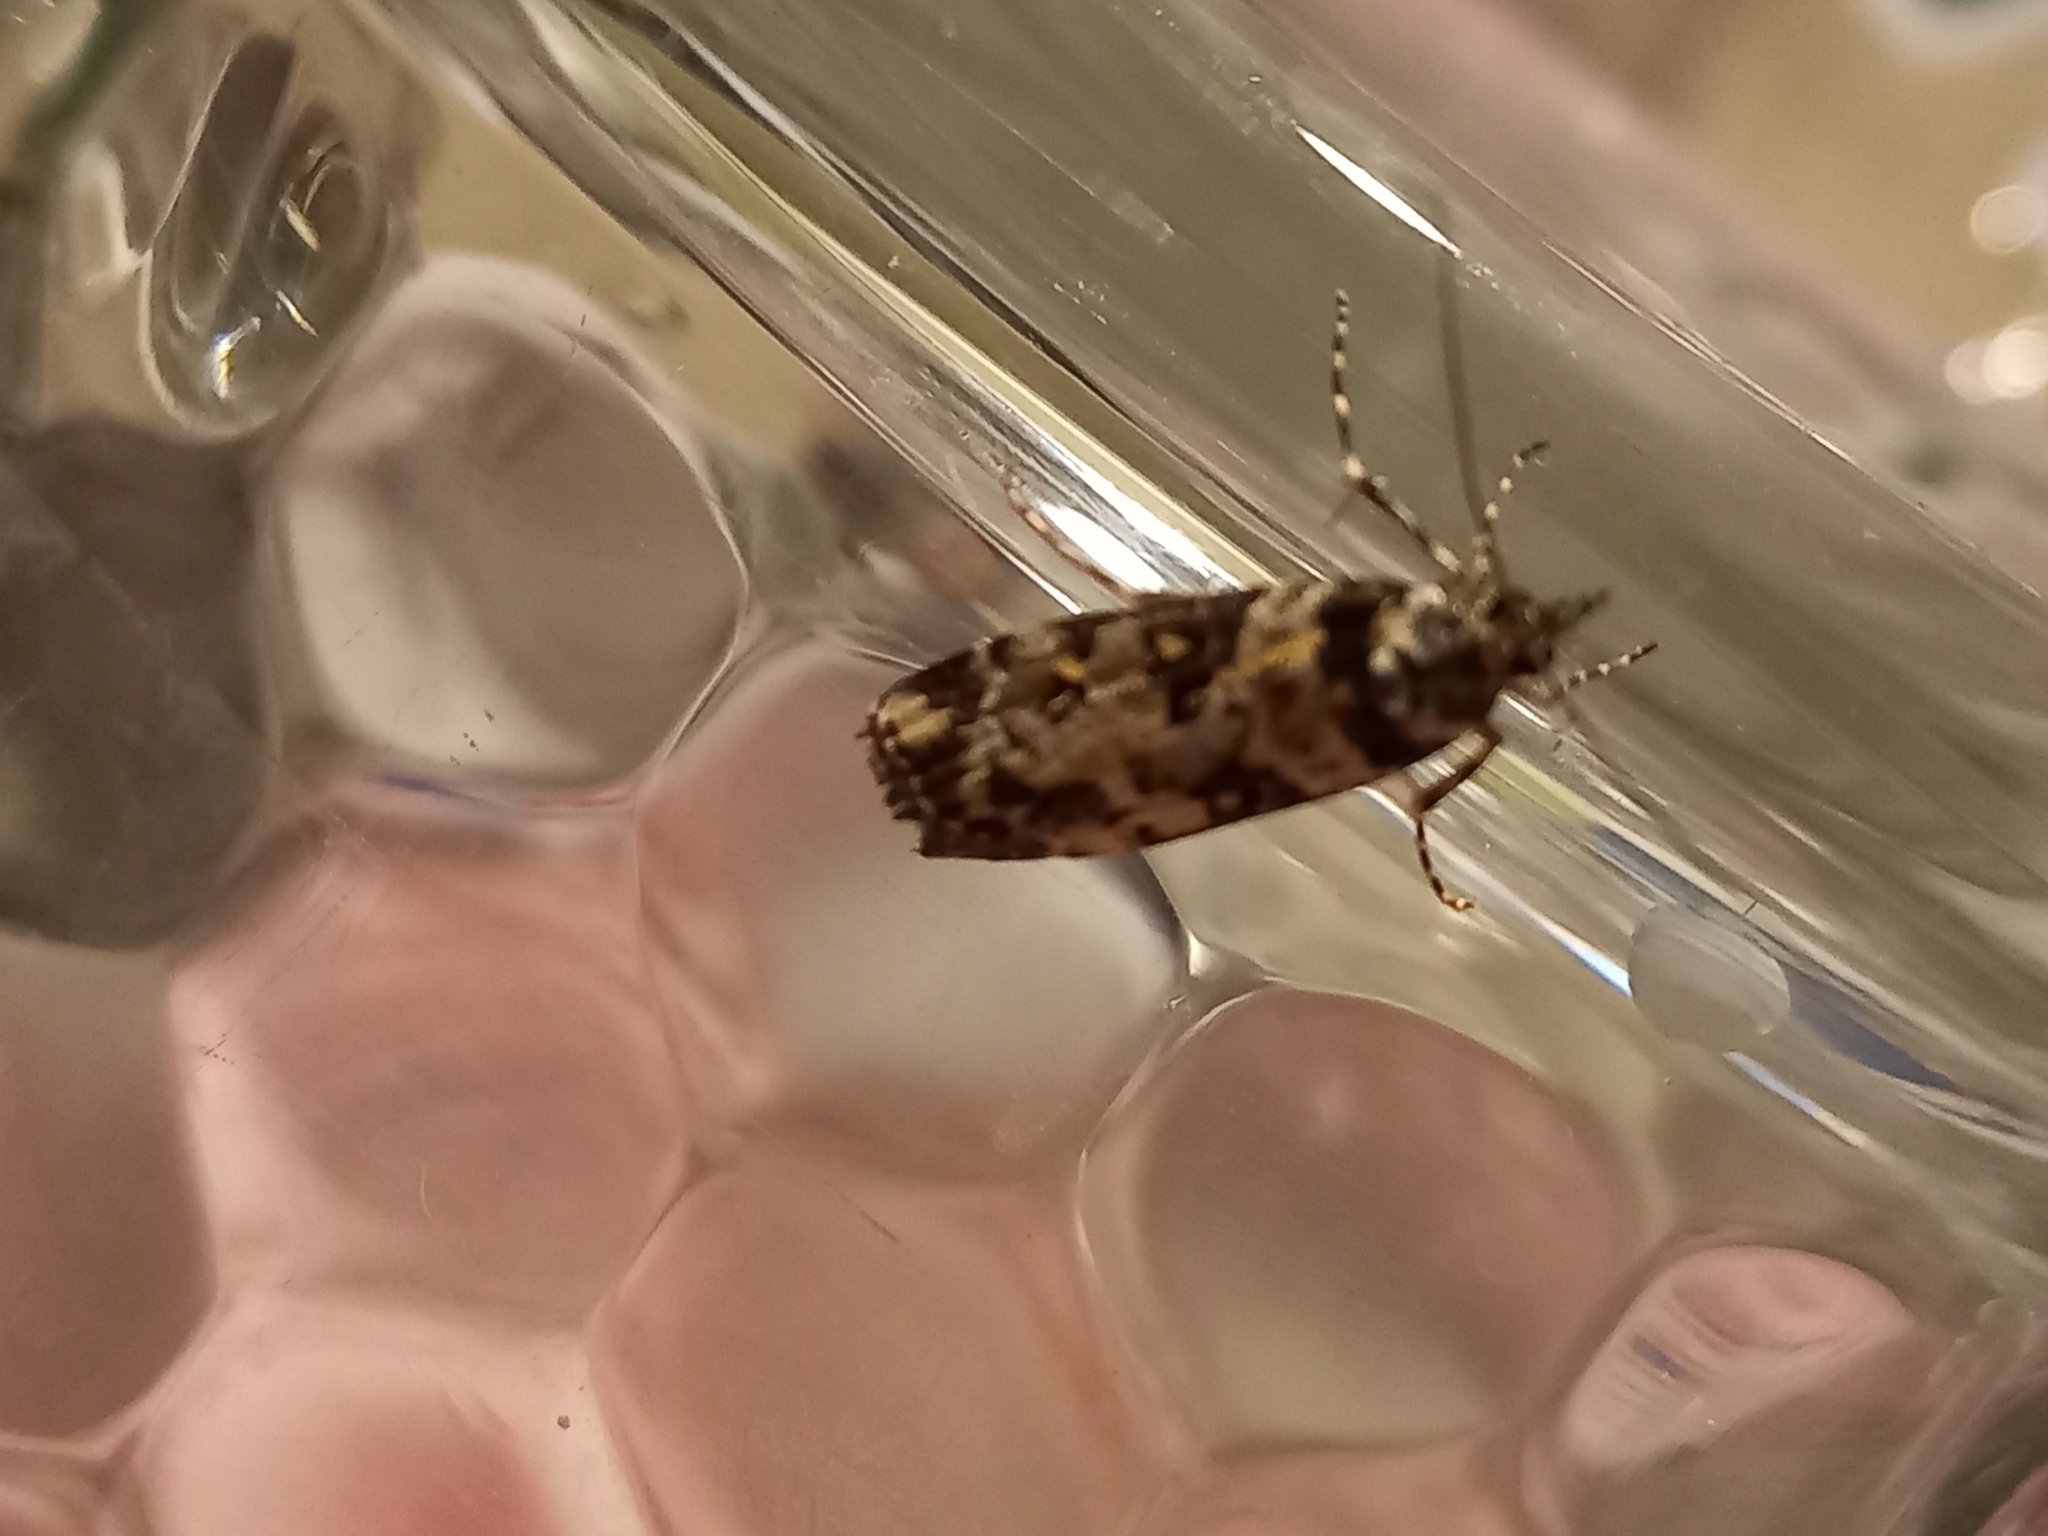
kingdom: Animalia
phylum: Arthropoda
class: Insecta
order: Lepidoptera
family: Crambidae
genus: Eudonia
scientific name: Eudonia diphtheralis
